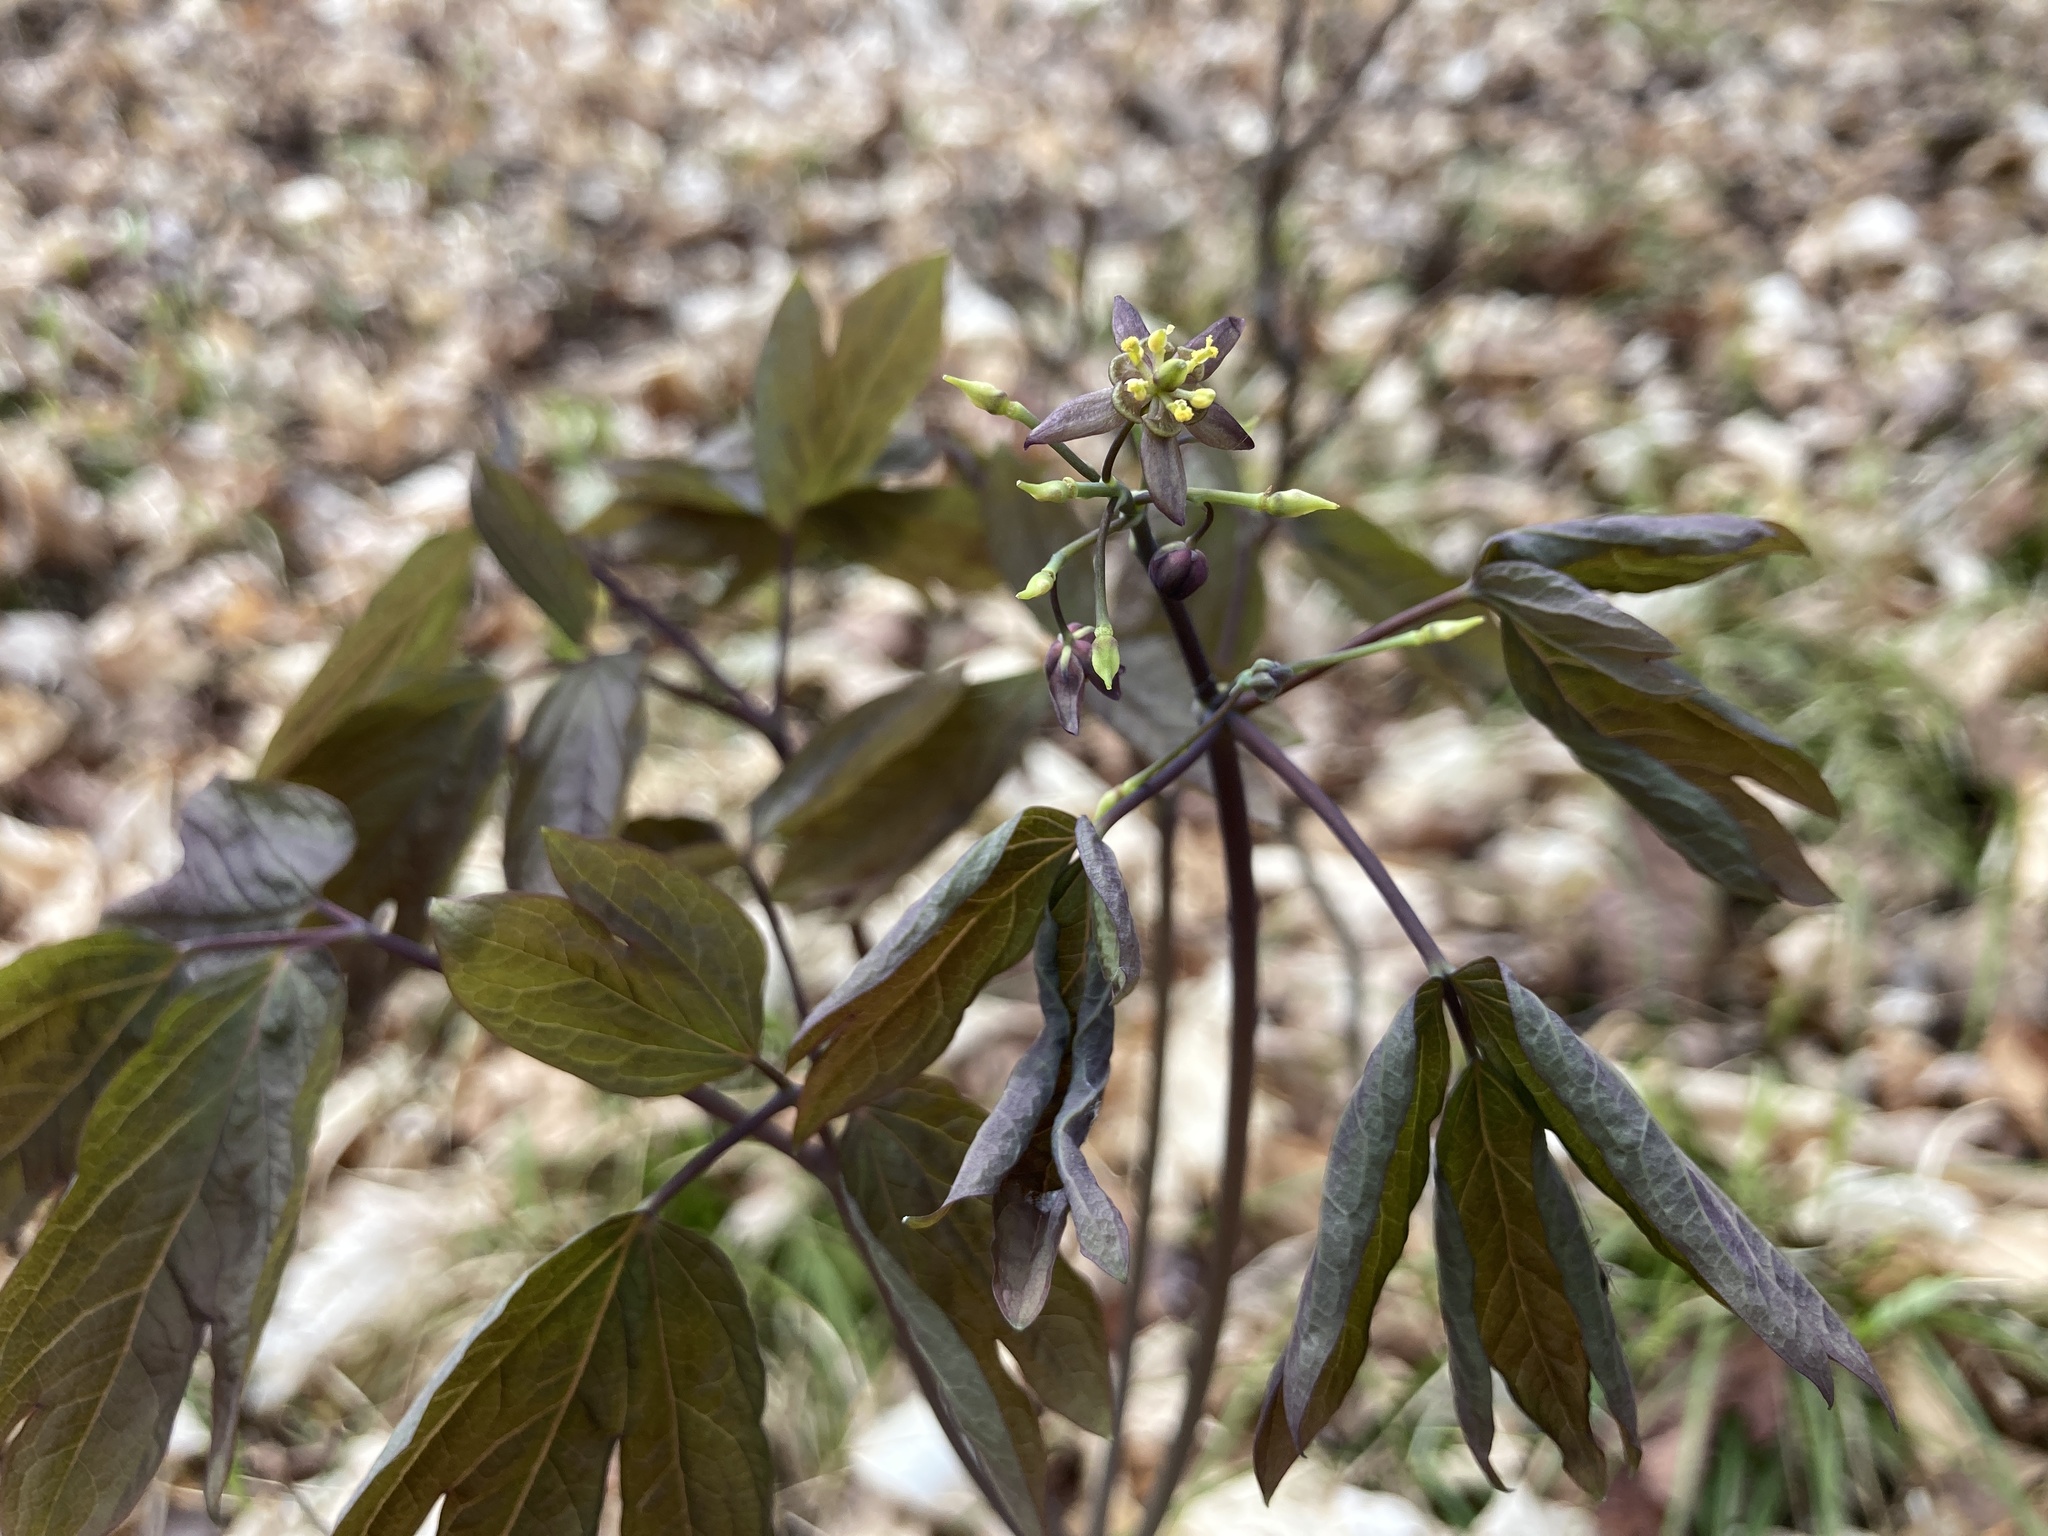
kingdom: Plantae
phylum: Tracheophyta
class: Magnoliopsida
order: Ranunculales
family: Berberidaceae
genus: Caulophyllum
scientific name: Caulophyllum giganteum
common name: Blue cohosh
